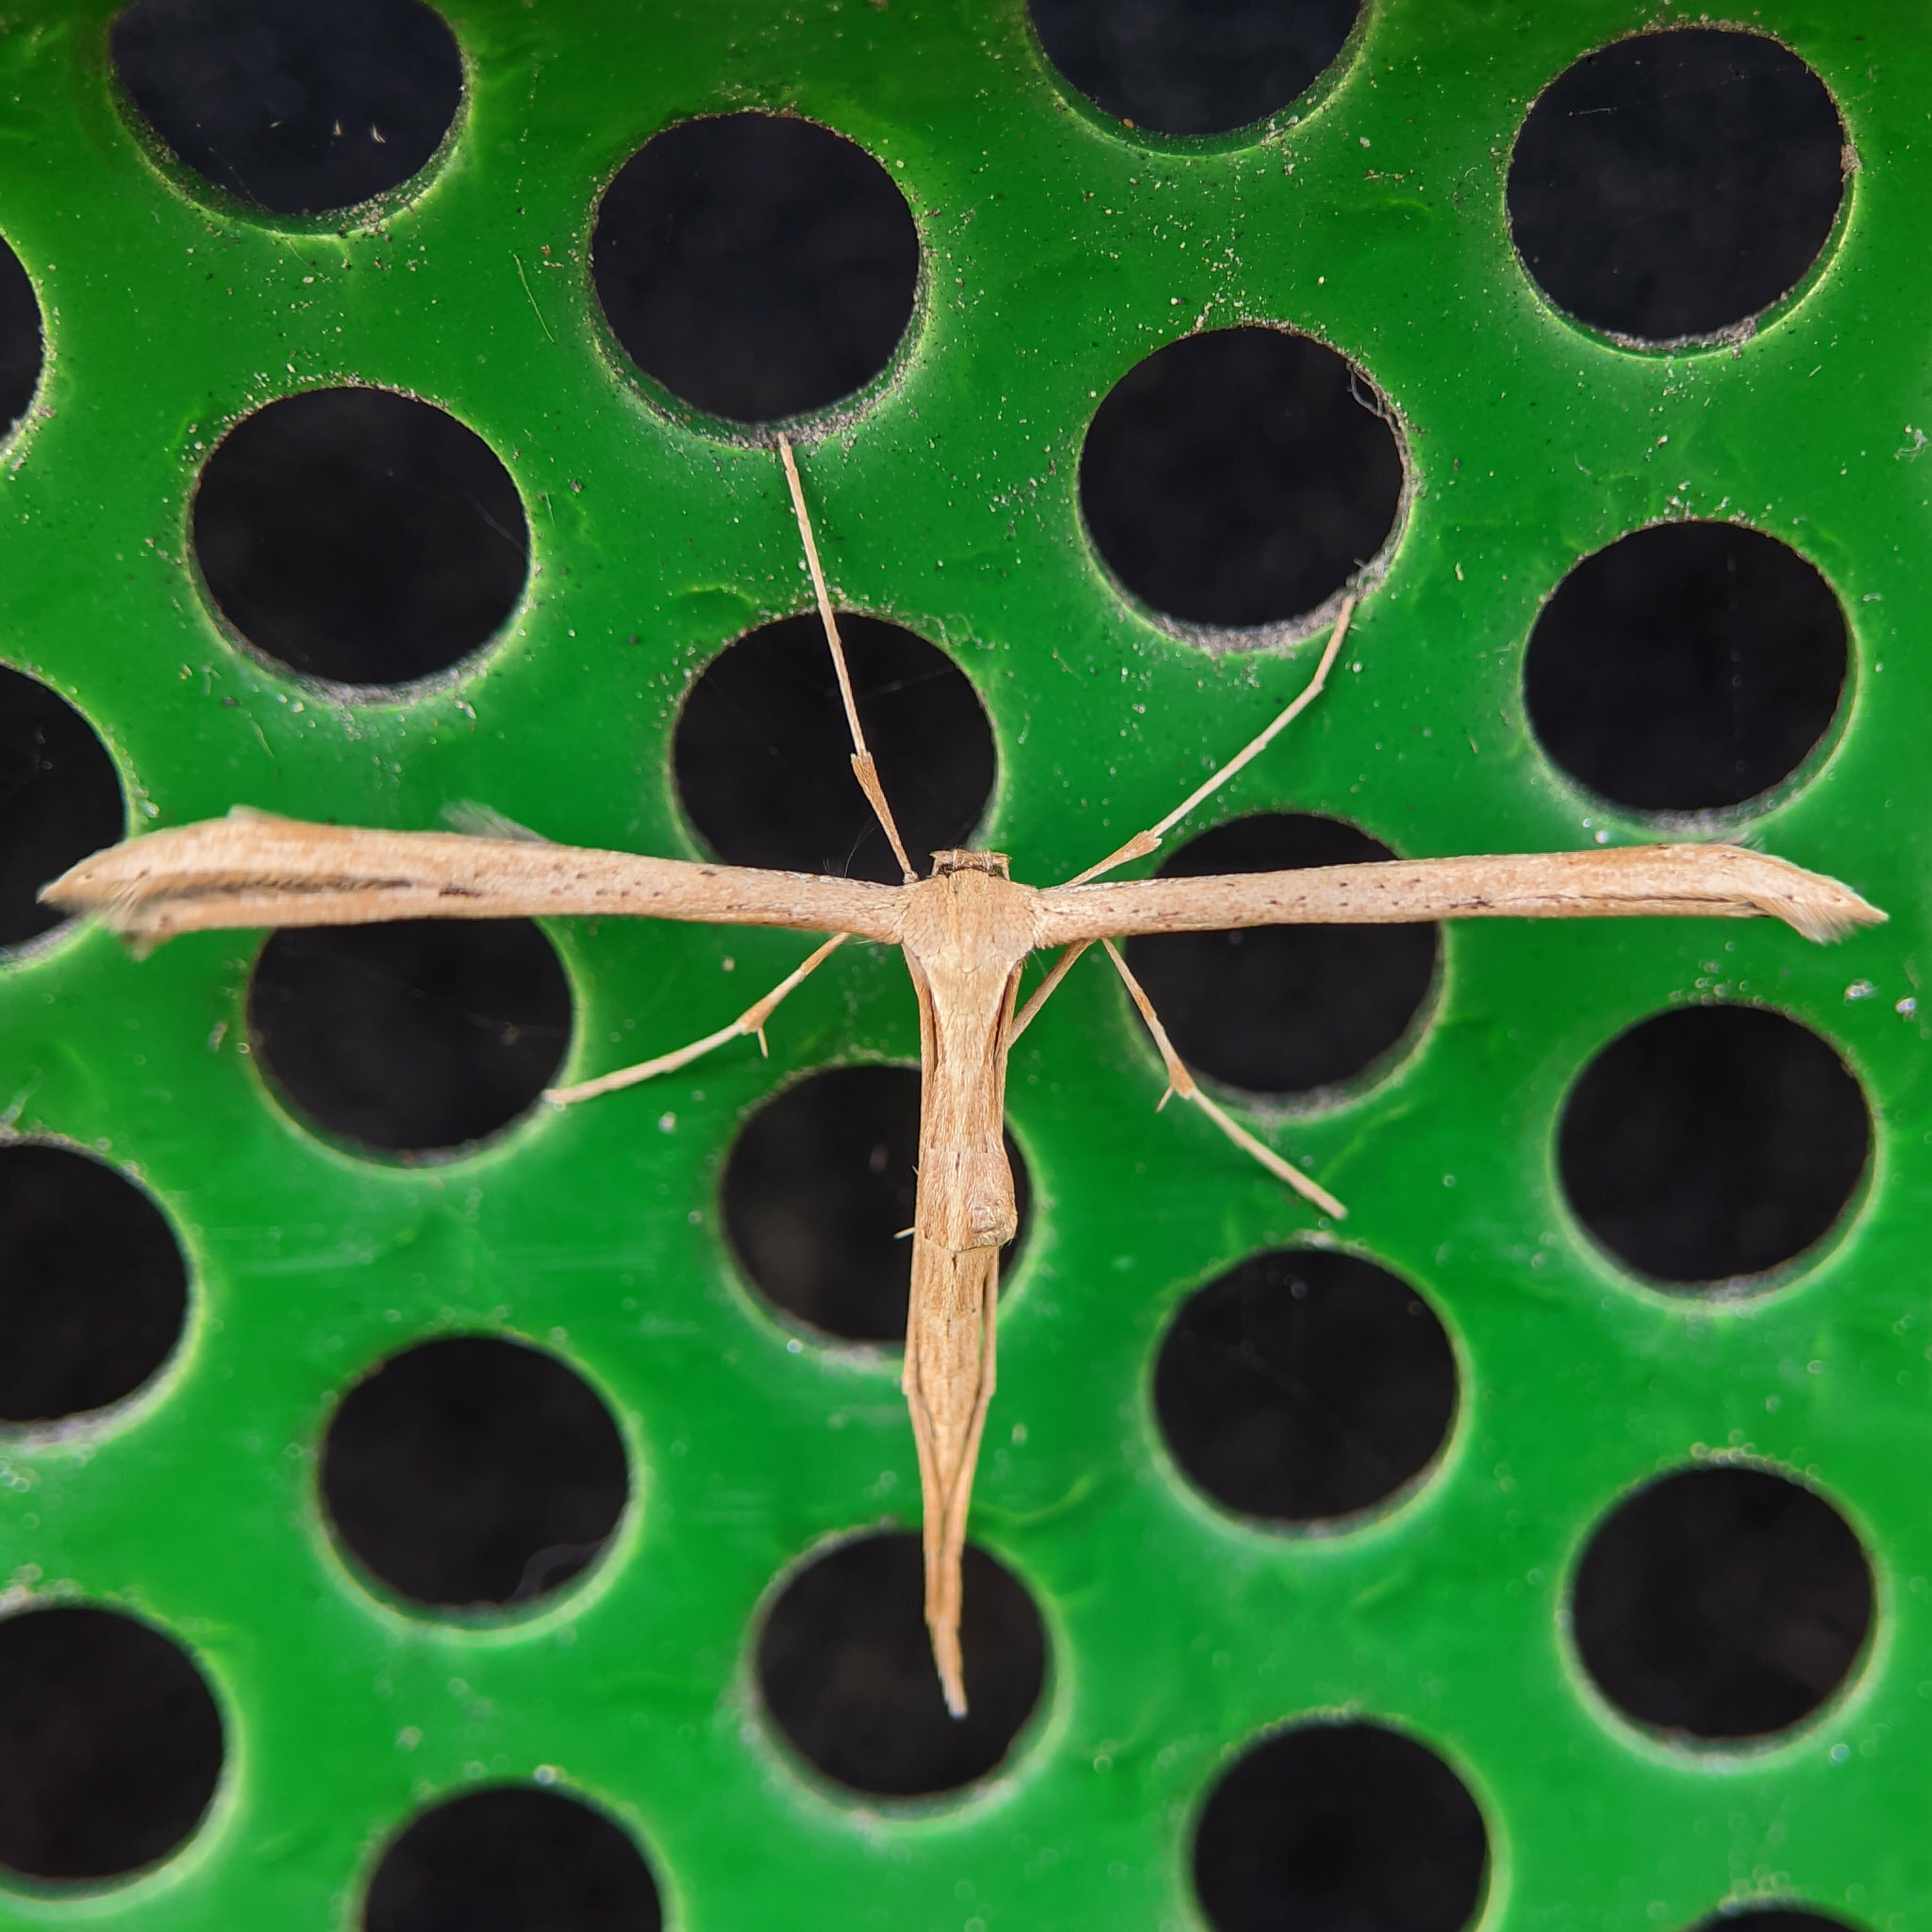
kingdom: Animalia
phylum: Arthropoda
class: Insecta
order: Lepidoptera
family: Pterophoridae
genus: Emmelina
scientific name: Emmelina monodactyla
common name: Common plume
